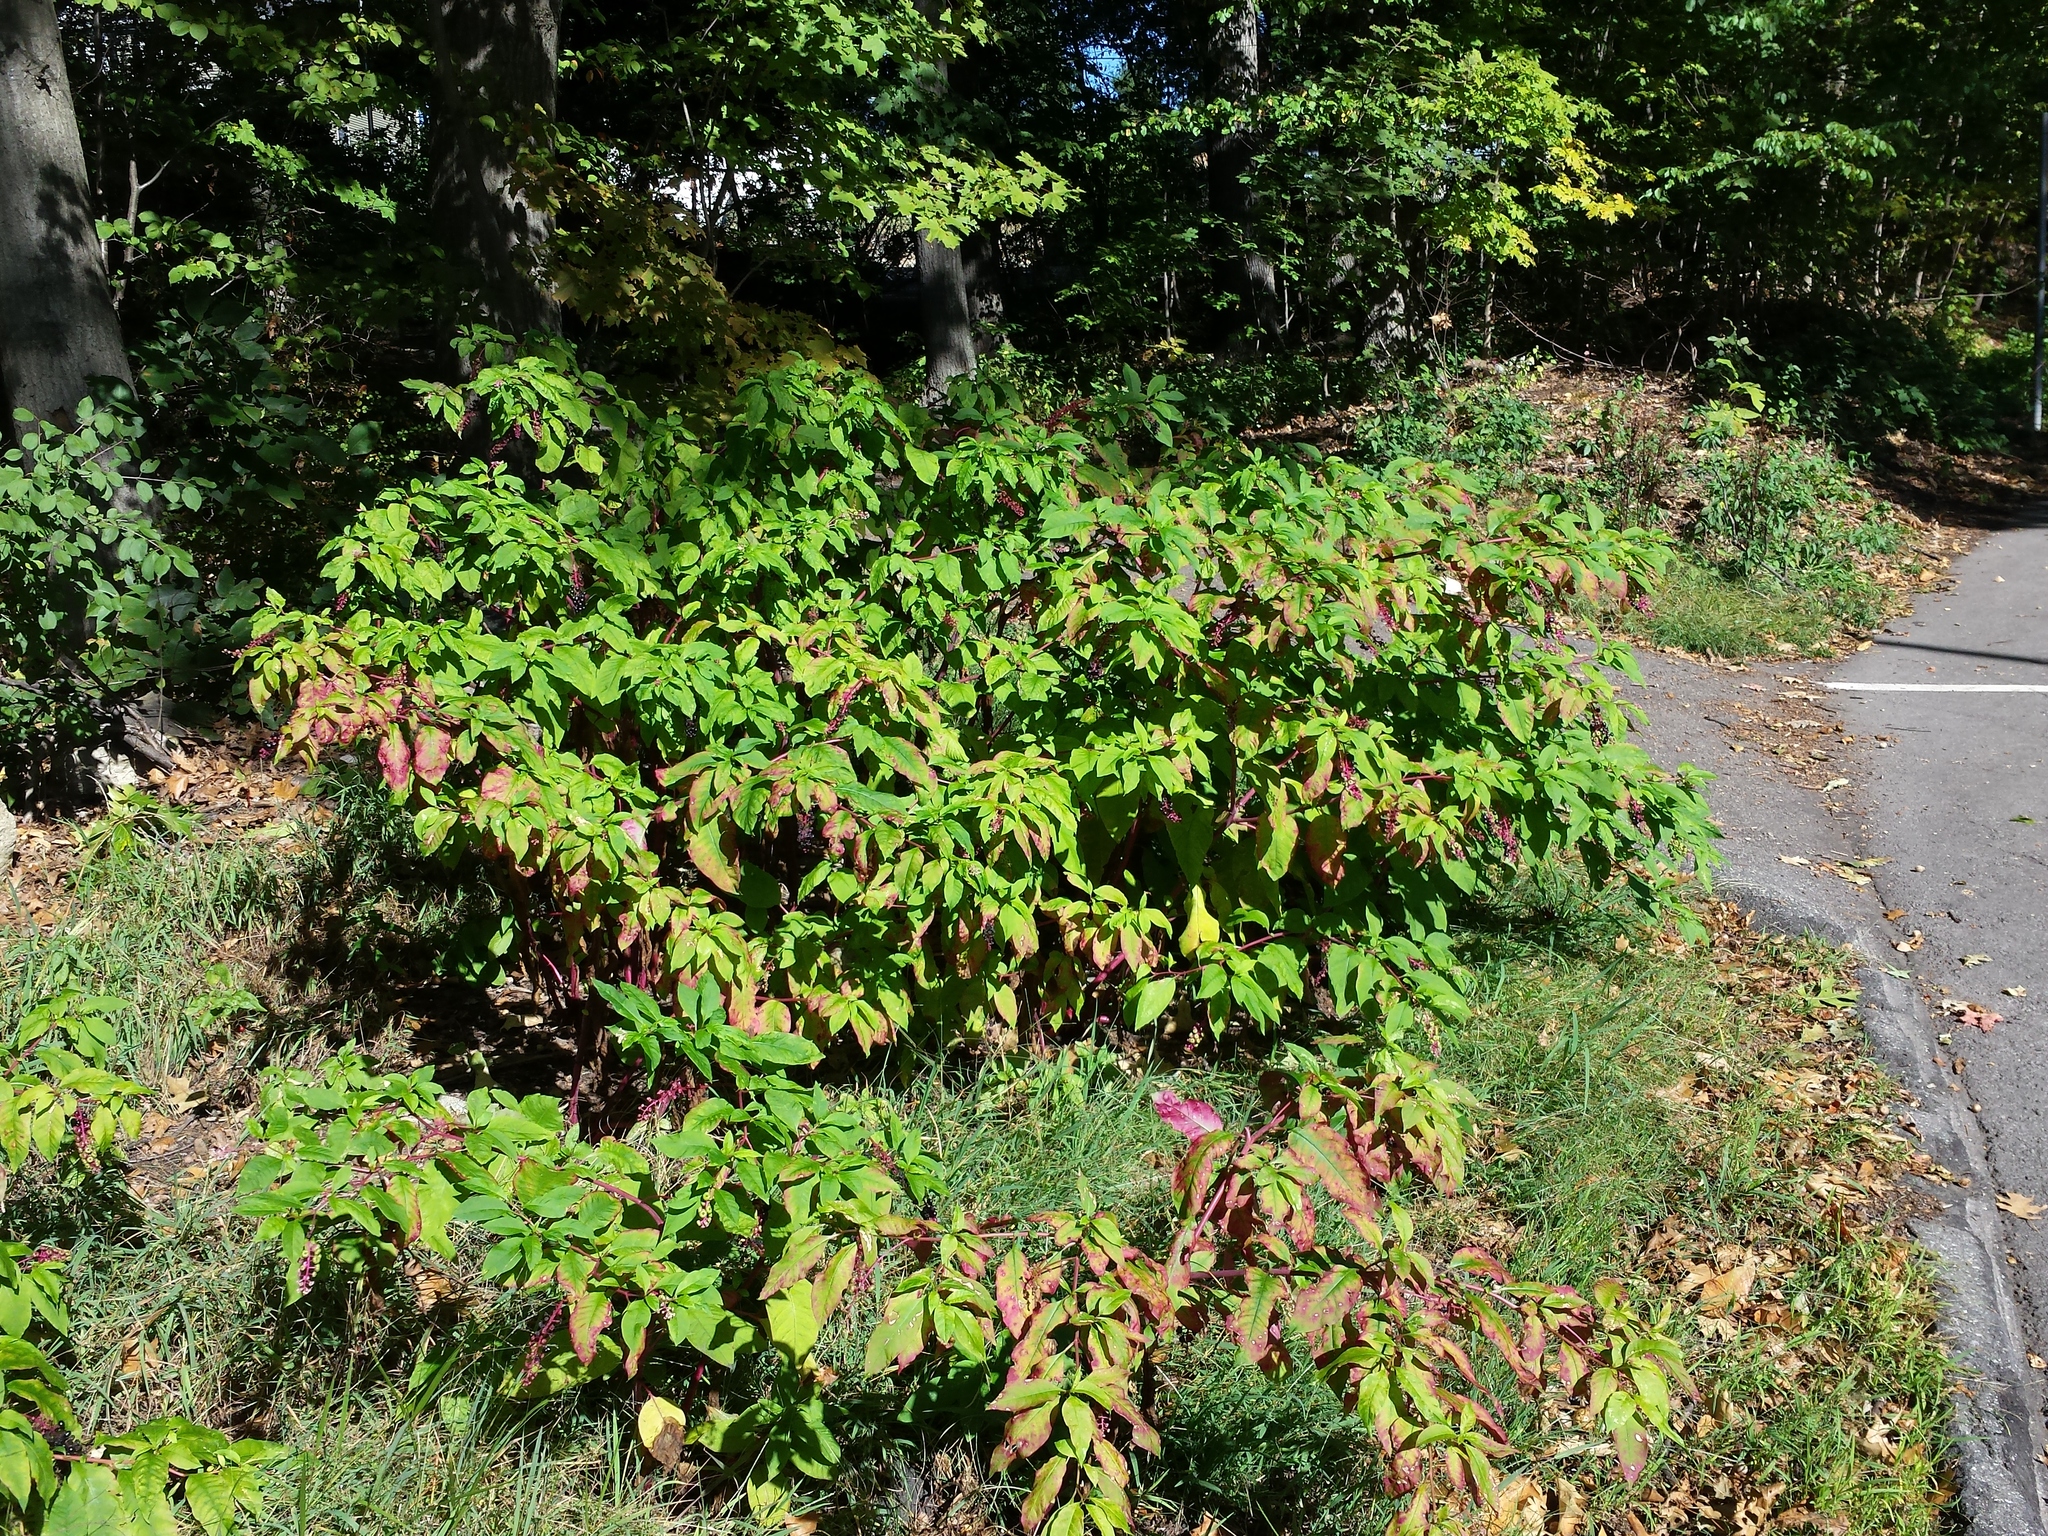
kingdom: Plantae
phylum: Tracheophyta
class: Magnoliopsida
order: Caryophyllales
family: Phytolaccaceae
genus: Phytolacca
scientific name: Phytolacca americana
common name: American pokeweed
